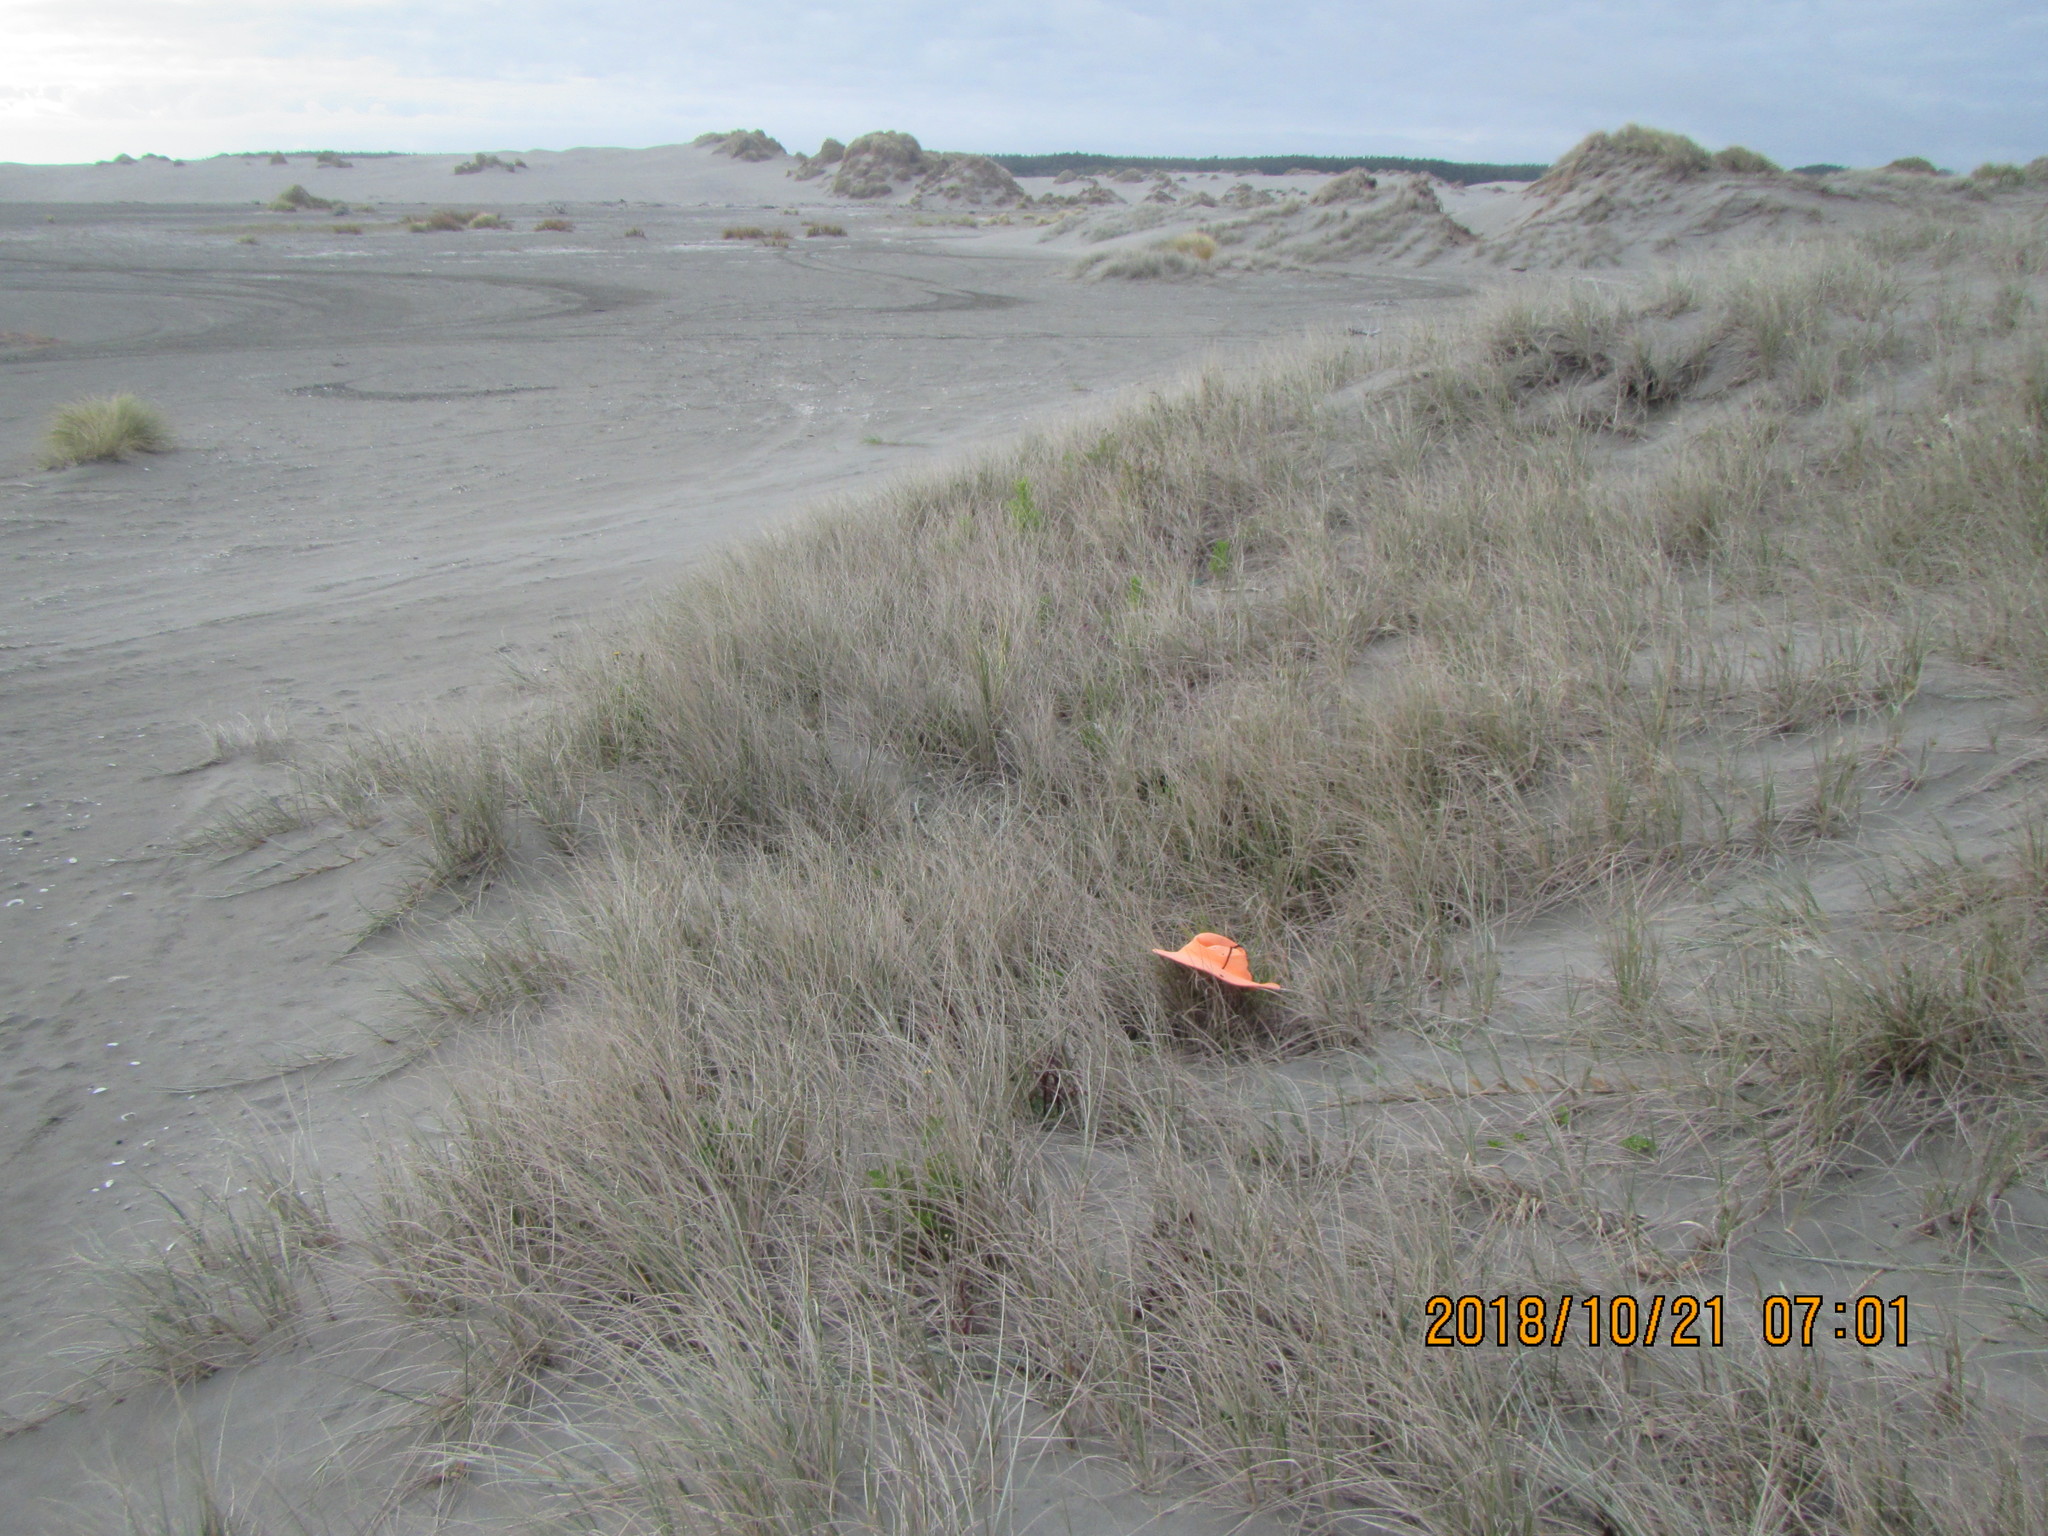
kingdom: Animalia
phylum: Chordata
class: Aves
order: Passeriformes
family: Motacillidae
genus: Anthus
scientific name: Anthus novaeseelandiae
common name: New zealand pipit
